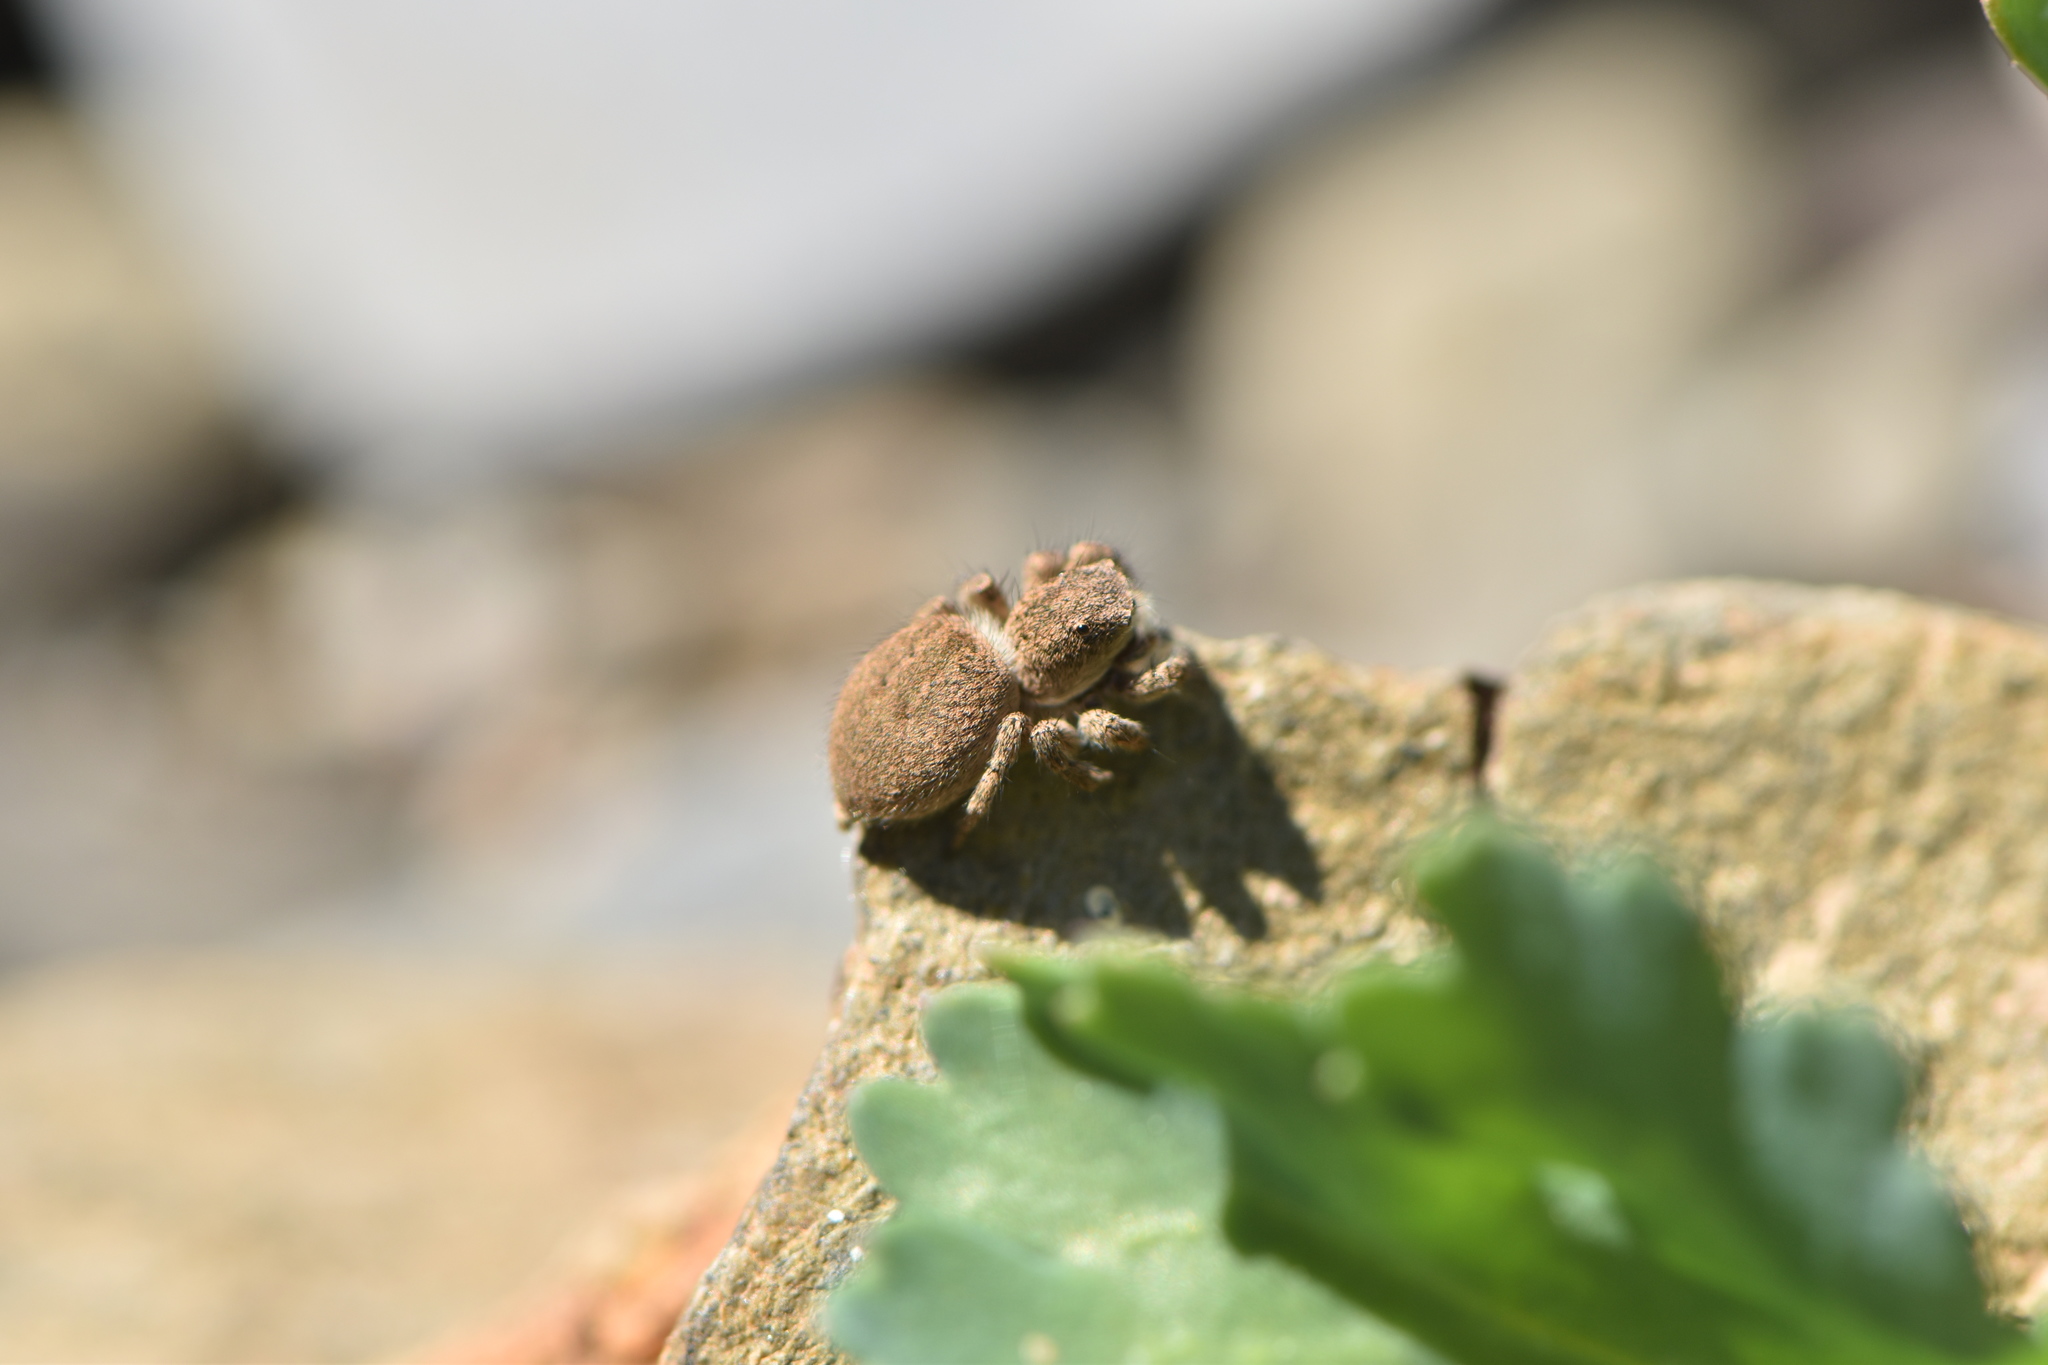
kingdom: Animalia
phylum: Arthropoda
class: Arachnida
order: Araneae
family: Salticidae
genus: Aelurillus
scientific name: Aelurillus luctuosus
